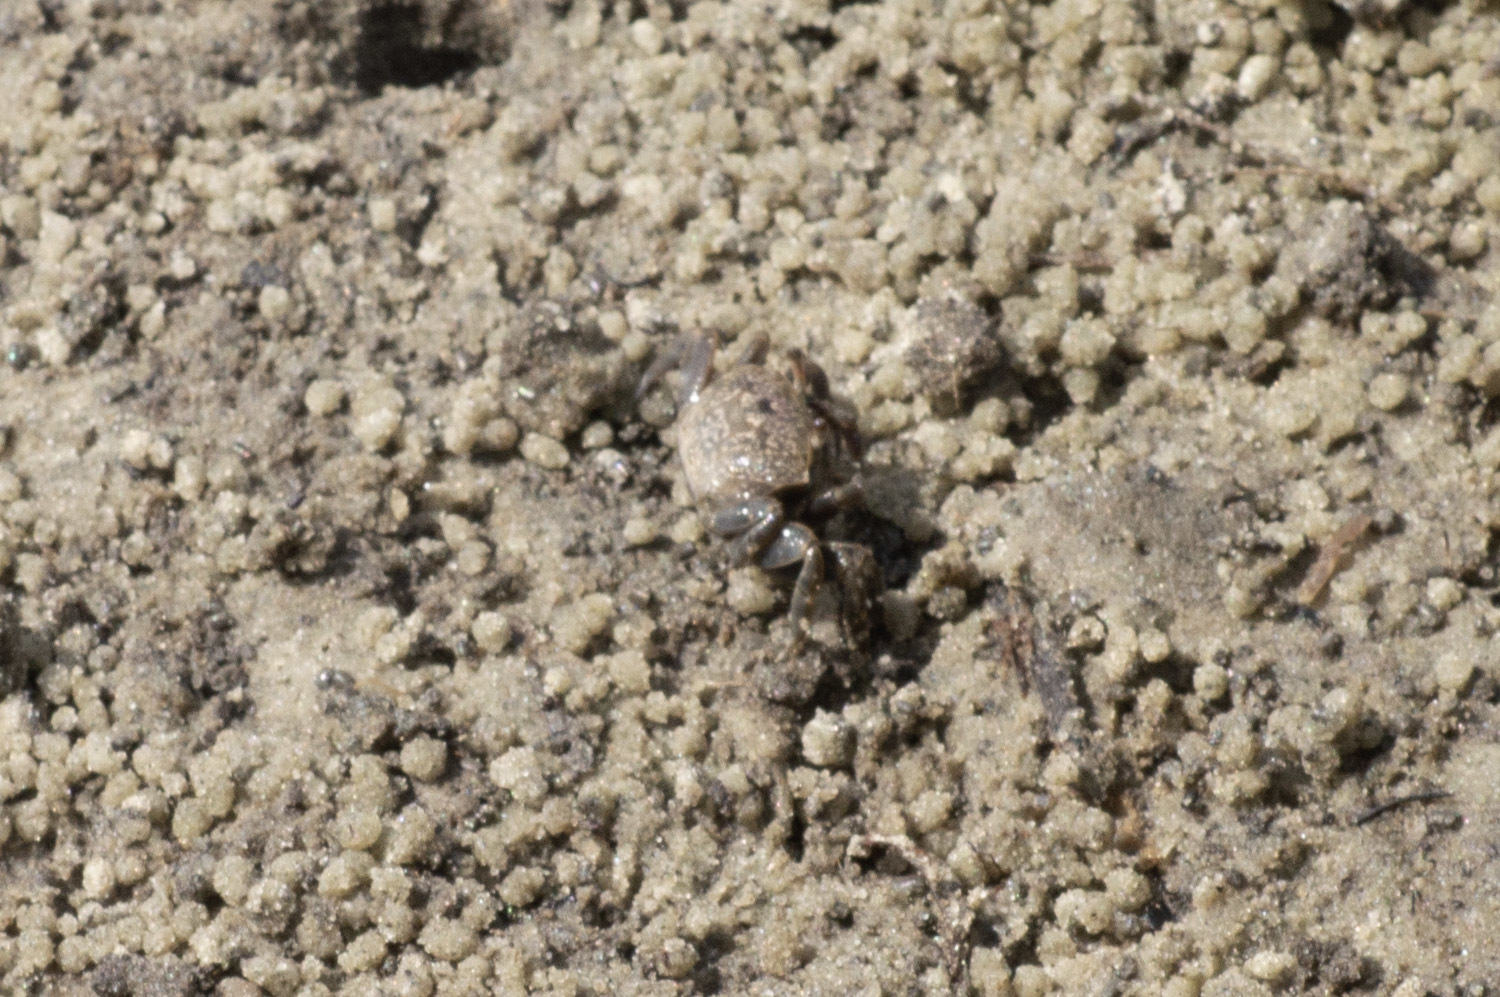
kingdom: Animalia
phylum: Arthropoda
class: Malacostraca
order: Decapoda
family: Ocypodidae
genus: Leptuca
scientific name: Leptuca pugilator
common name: Atlantic sand fiddler crab
